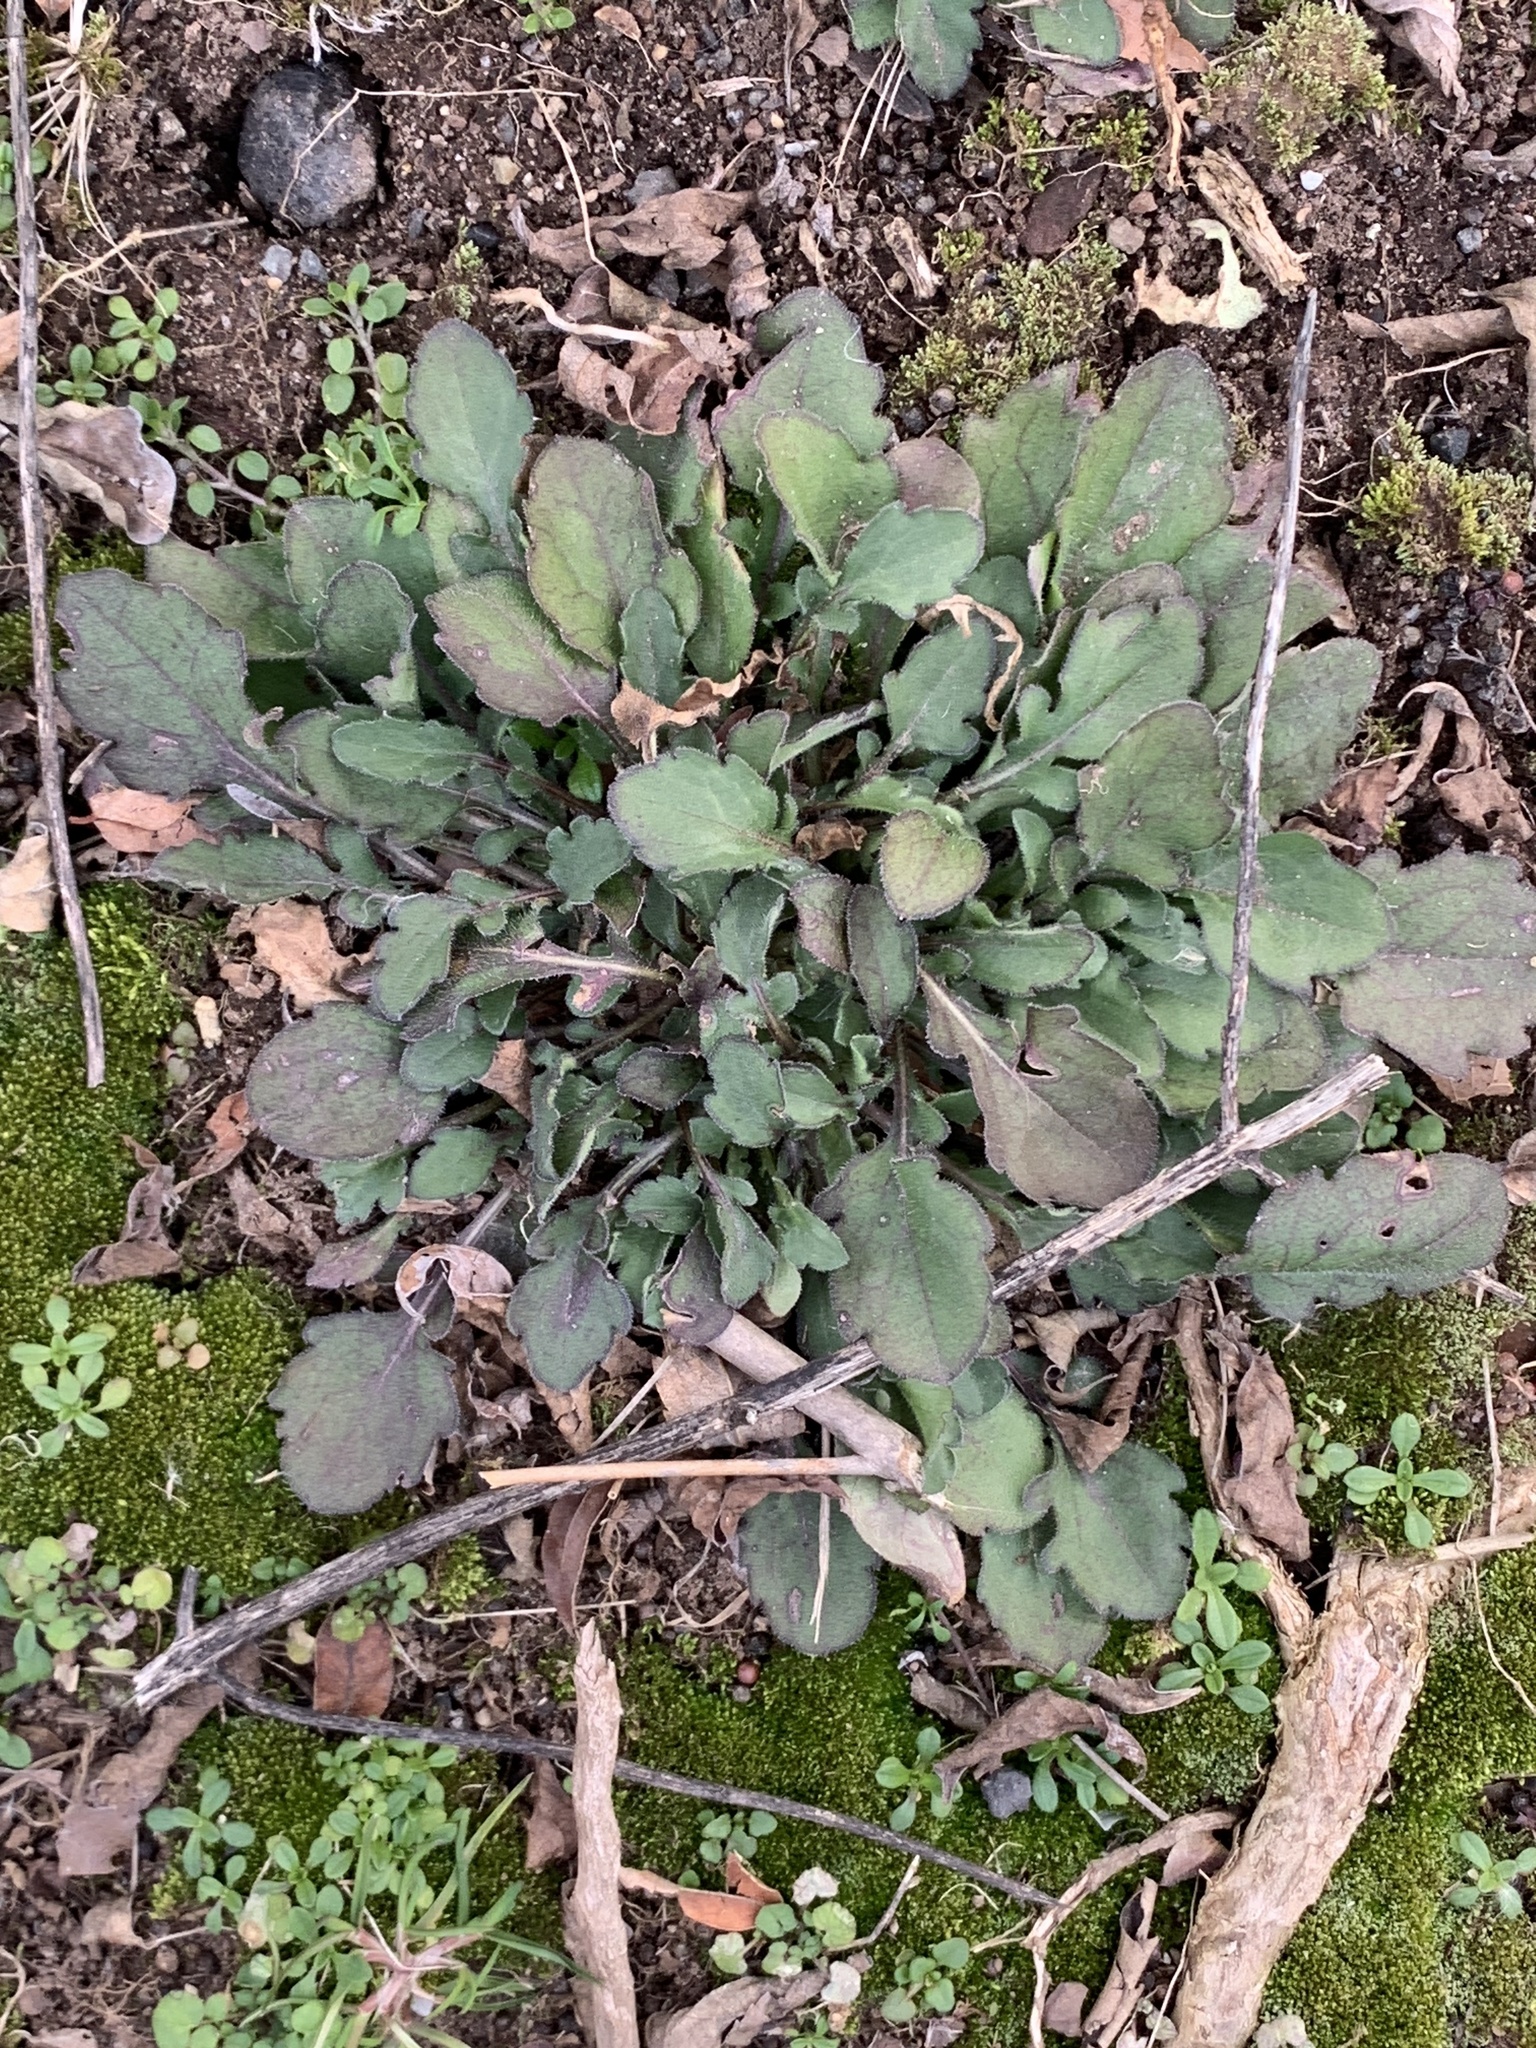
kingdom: Plantae
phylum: Tracheophyta
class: Magnoliopsida
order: Asterales
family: Asteraceae
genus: Erigeron
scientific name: Erigeron canadensis
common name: Canadian fleabane
